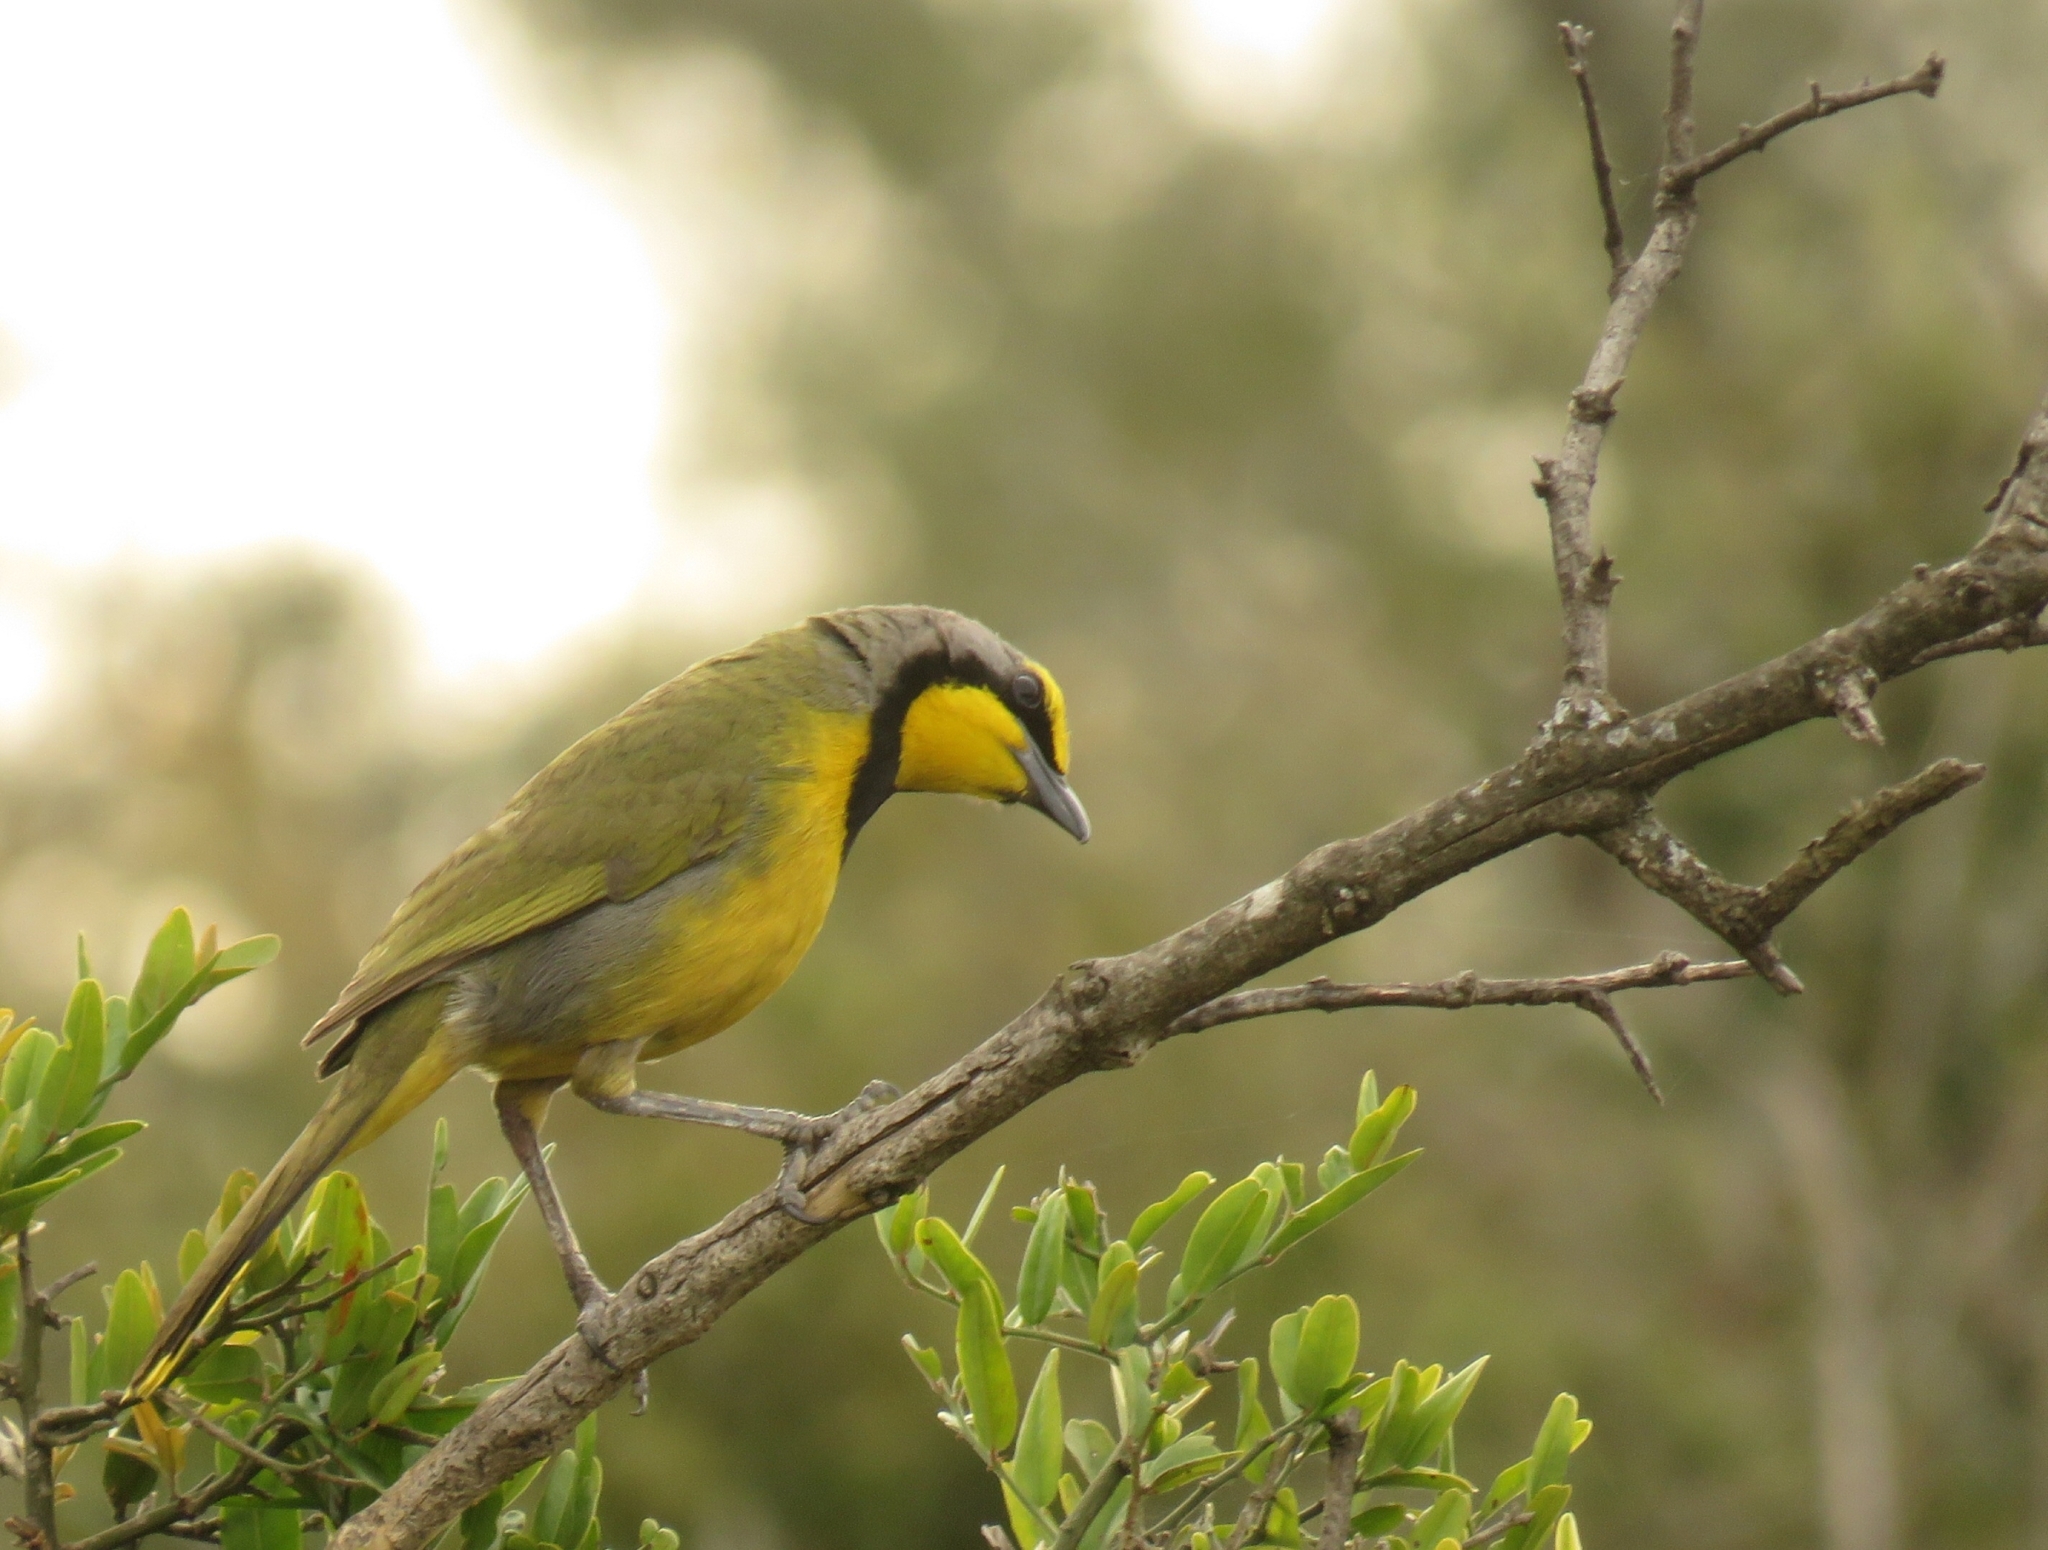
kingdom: Animalia
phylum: Chordata
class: Aves
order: Passeriformes
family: Malaconotidae
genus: Telophorus
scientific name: Telophorus zeylonus
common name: Bokmakierie
